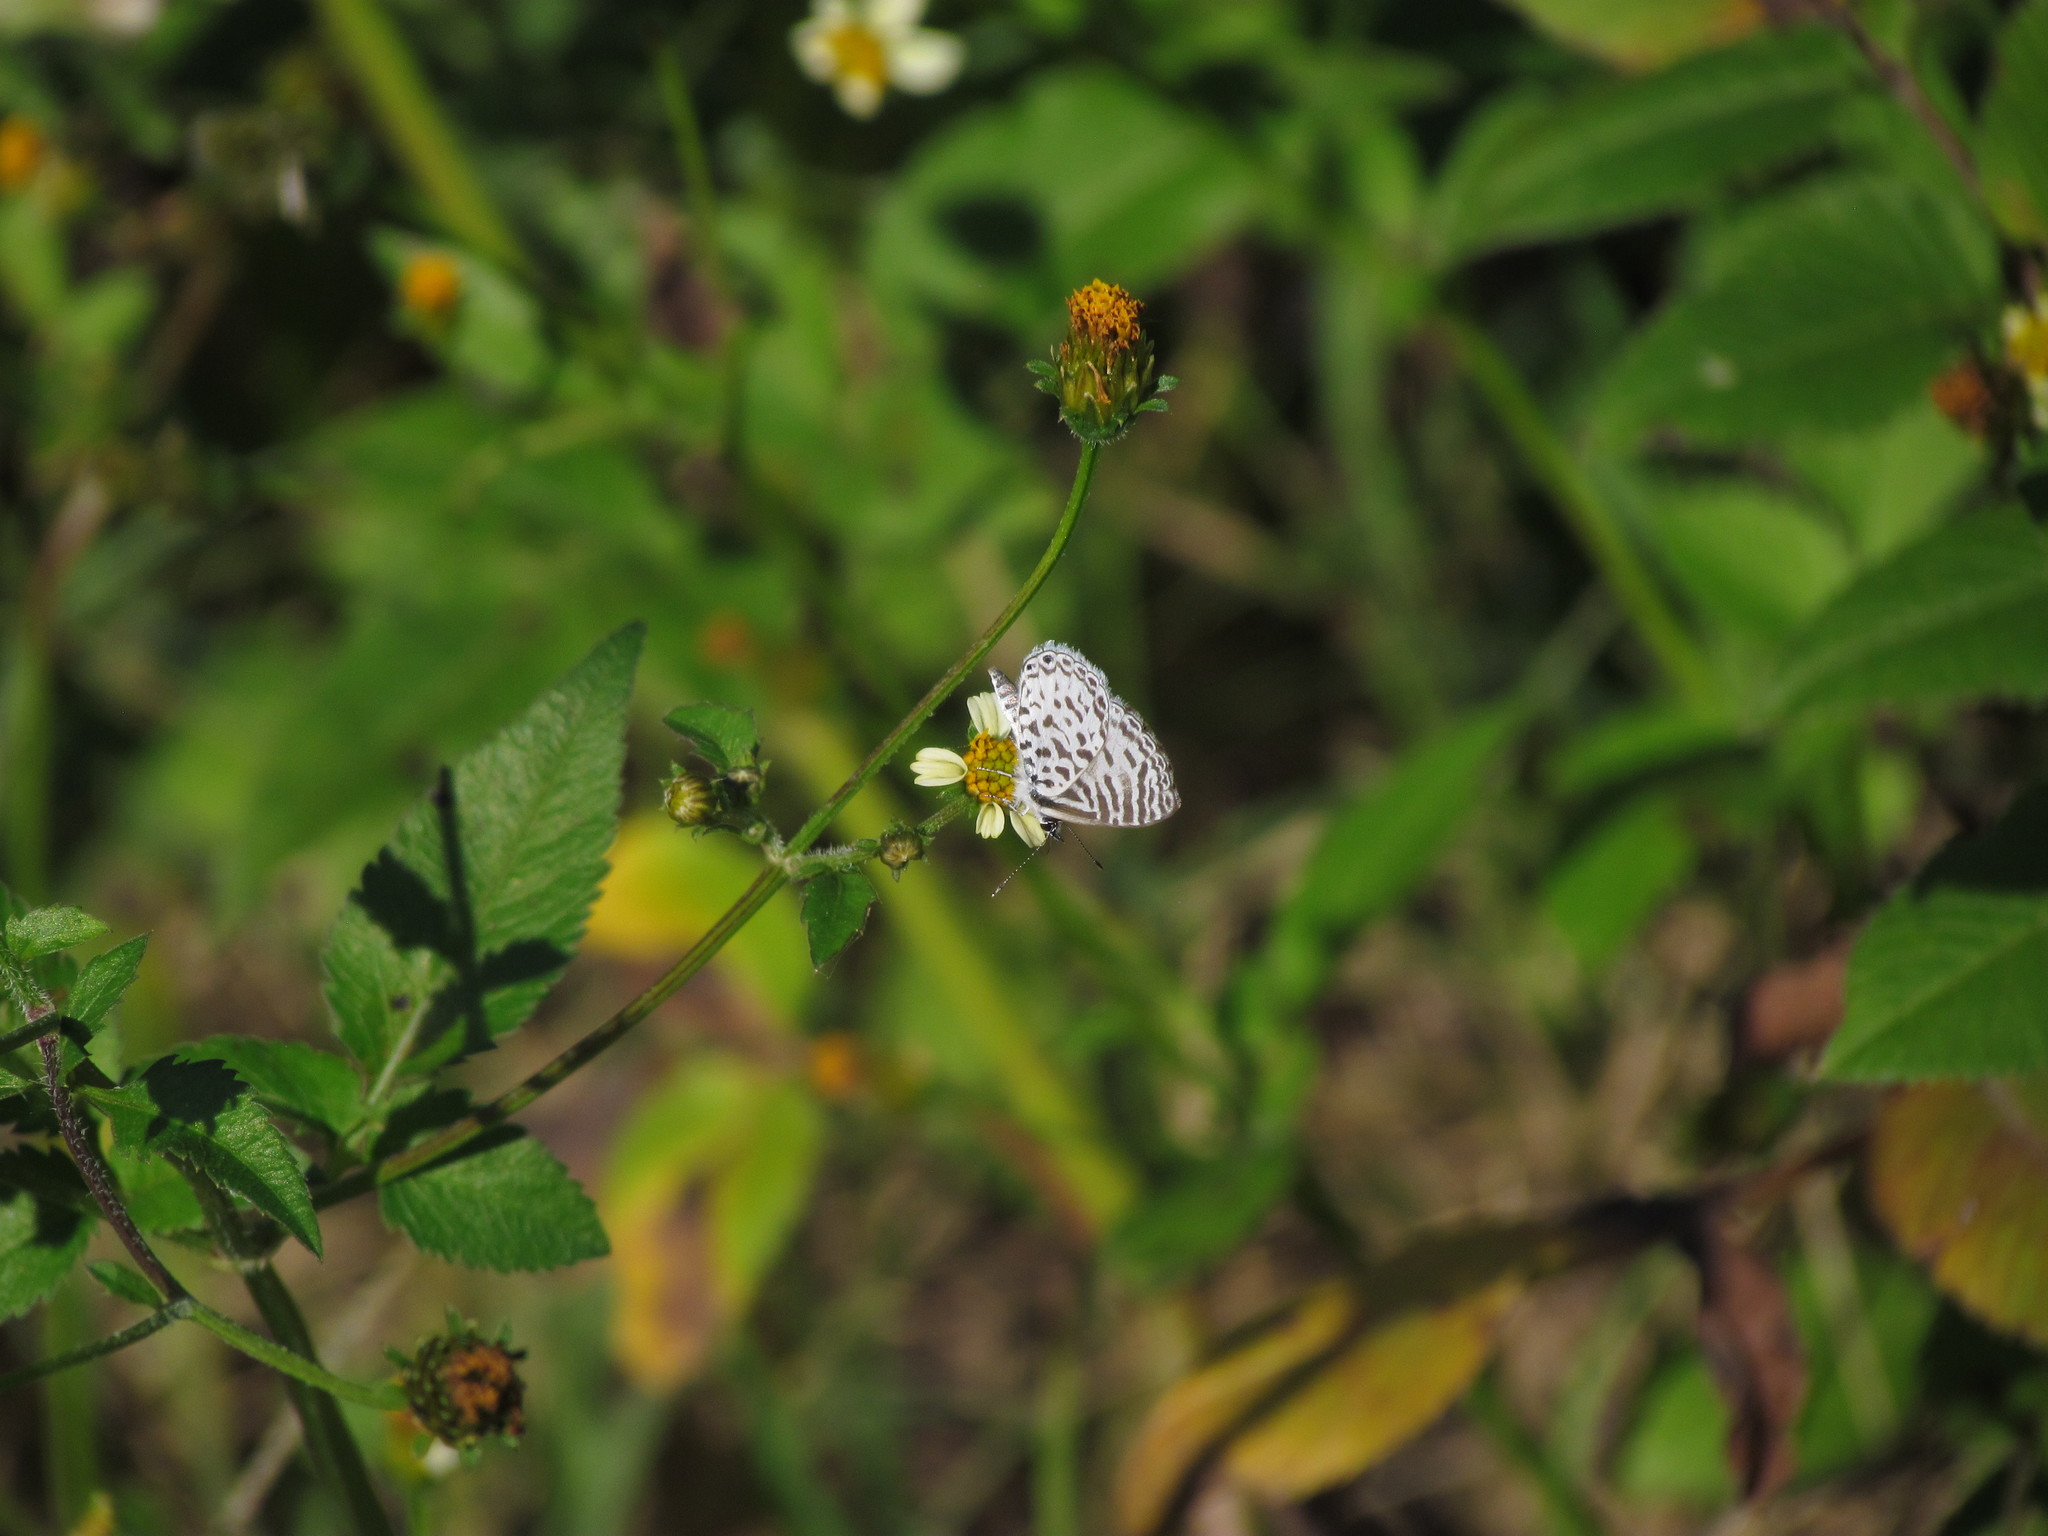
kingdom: Animalia
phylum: Arthropoda
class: Insecta
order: Lepidoptera
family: Lycaenidae
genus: Leptotes
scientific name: Leptotes cassius
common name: Cassius blue
